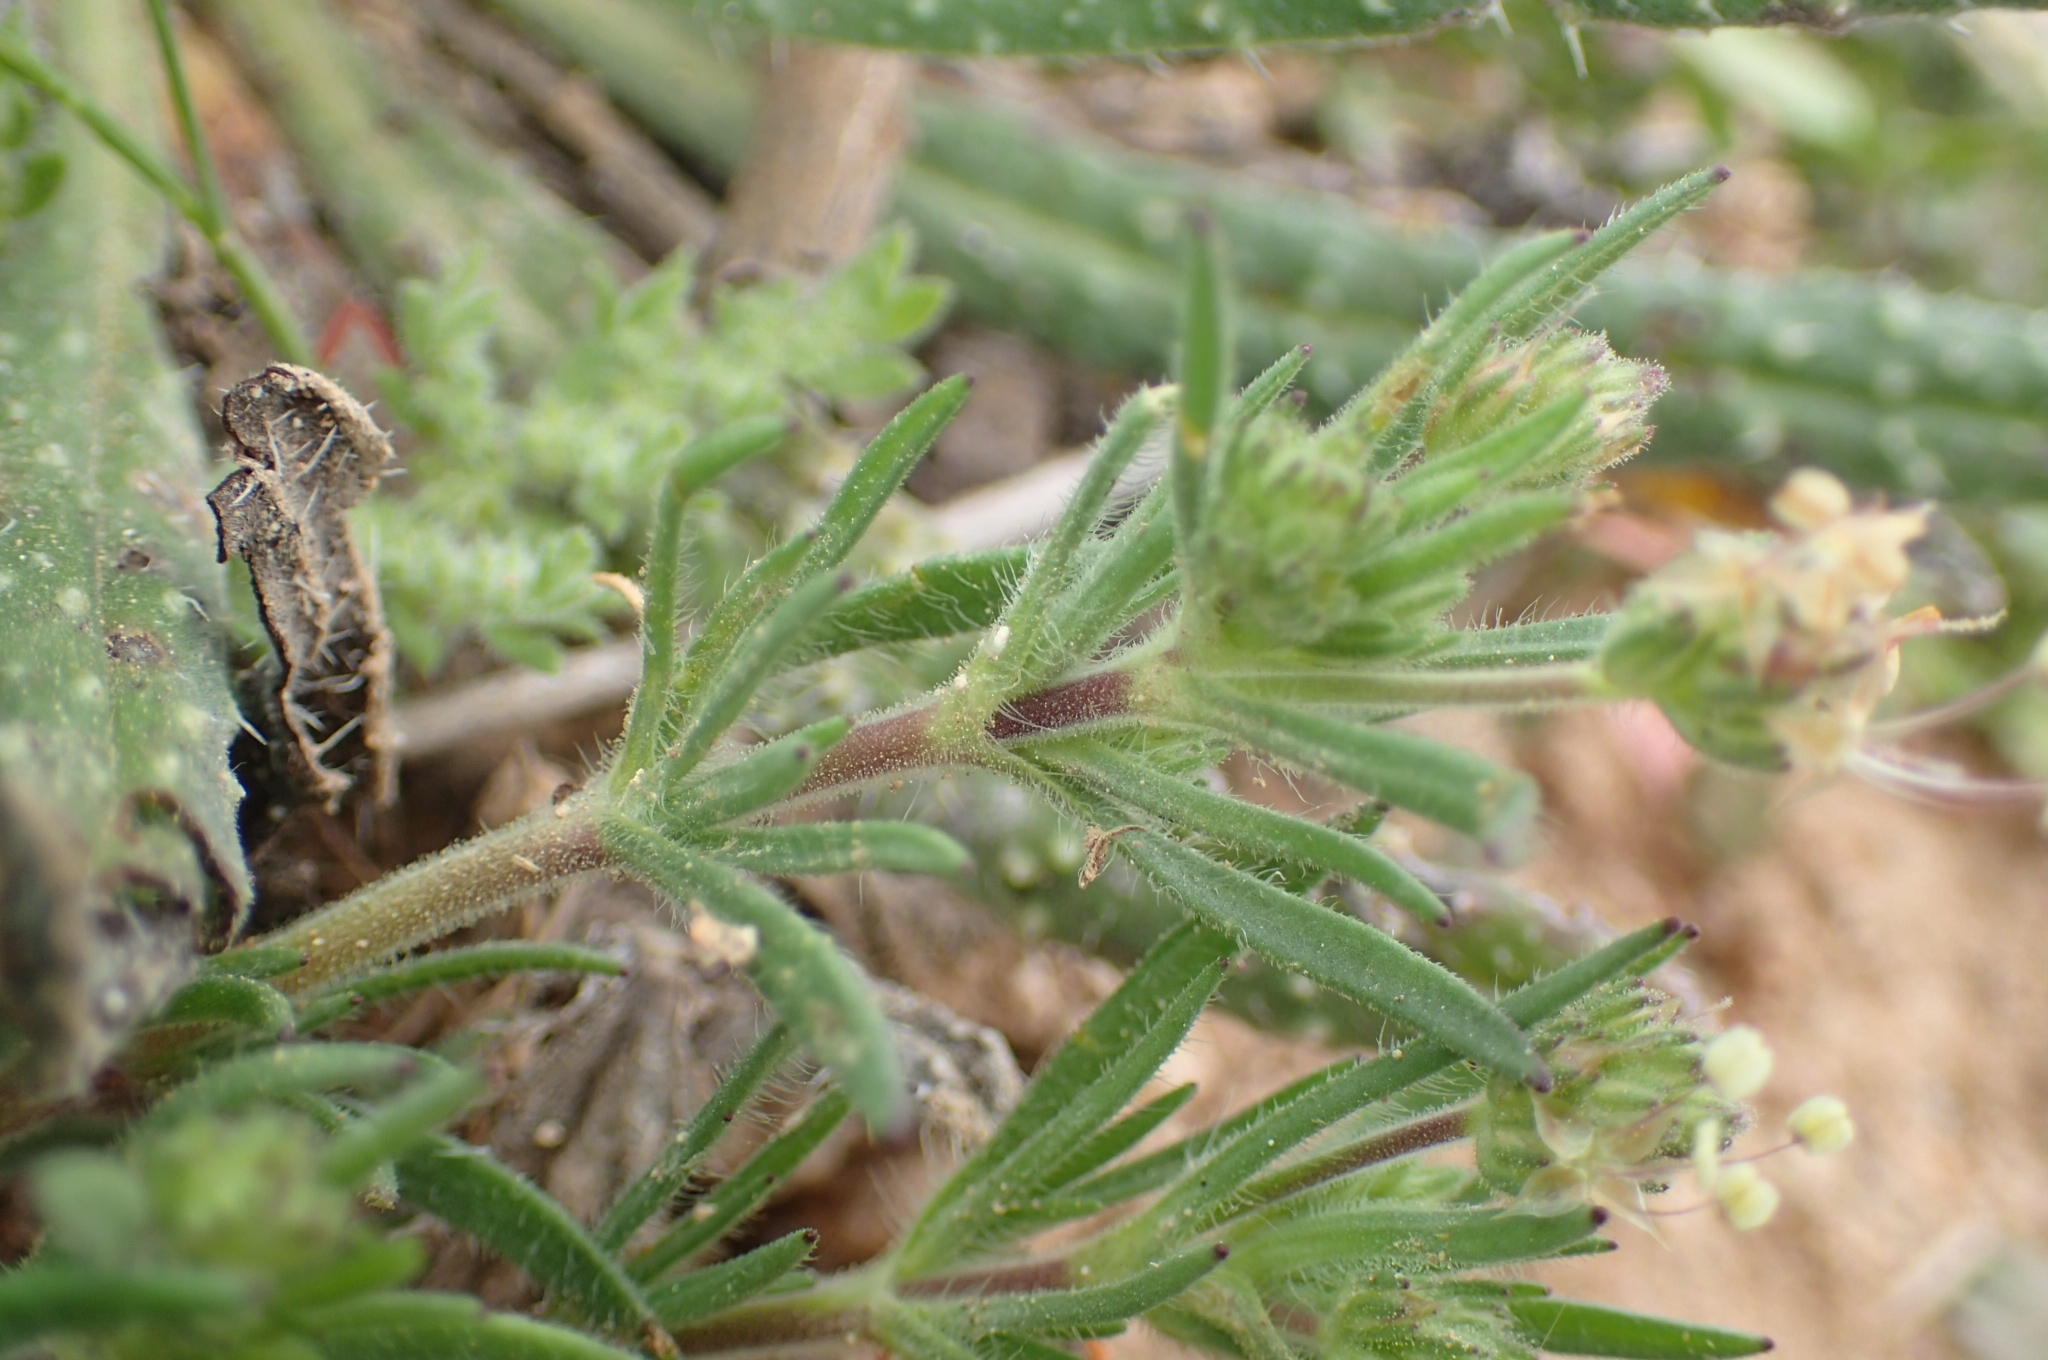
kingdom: Plantae
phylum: Tracheophyta
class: Magnoliopsida
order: Lamiales
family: Plantaginaceae
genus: Plantago
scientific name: Plantago afra
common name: Glandular plantain
